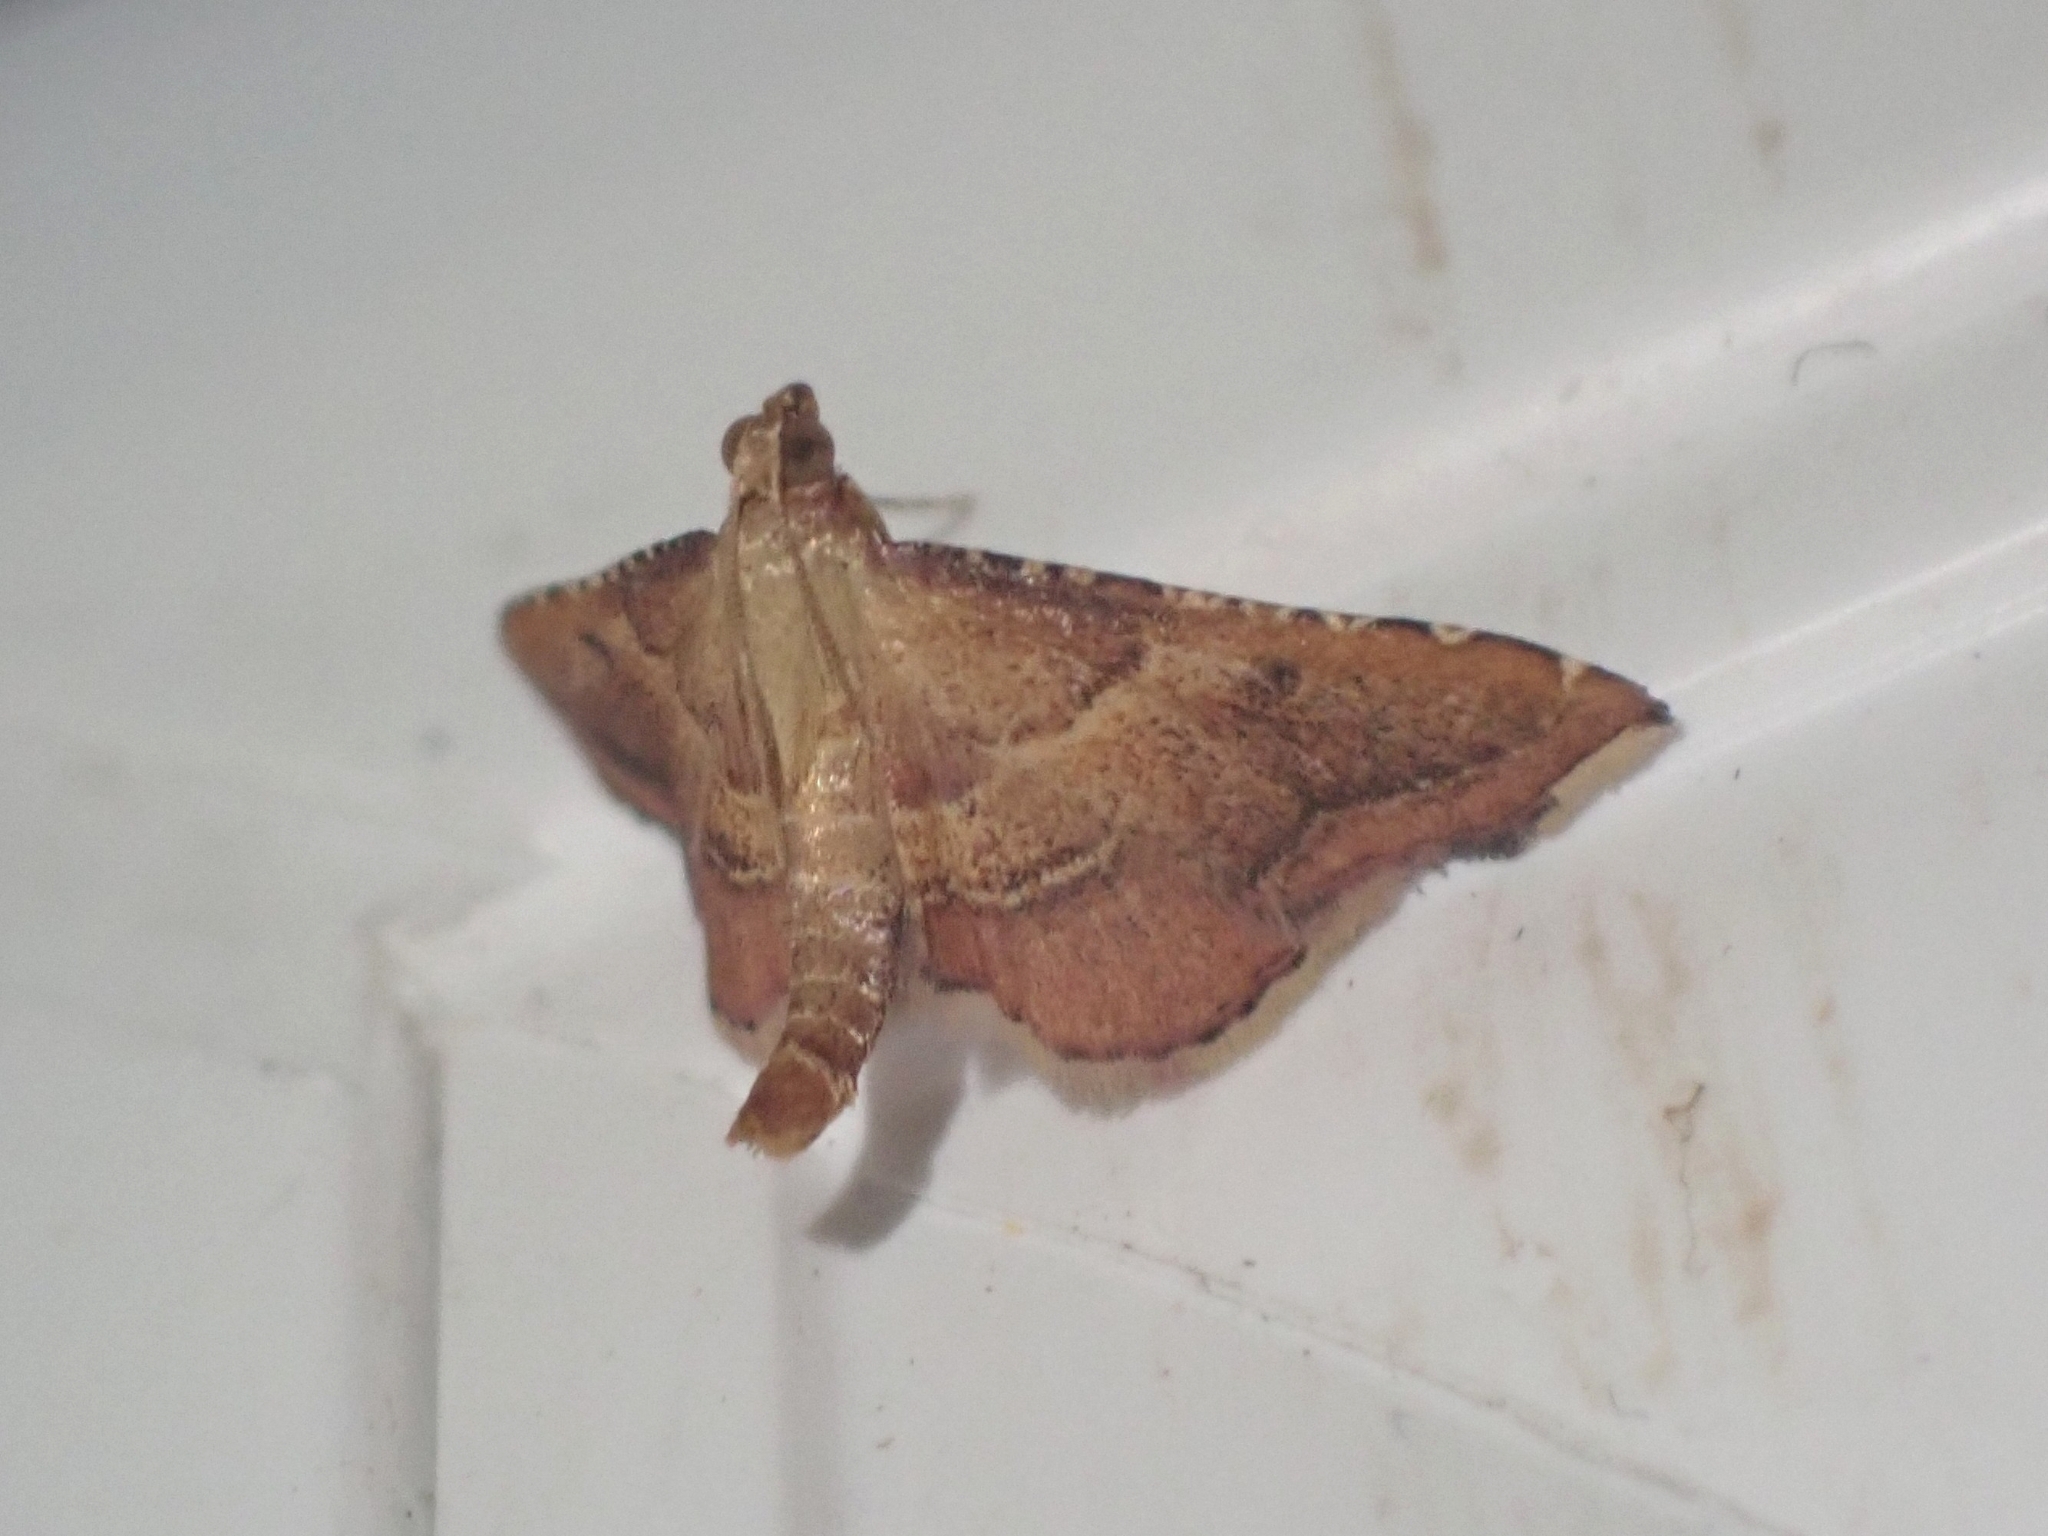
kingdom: Animalia
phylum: Arthropoda
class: Insecta
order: Lepidoptera
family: Pyralidae
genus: Endotricha
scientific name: Endotricha flammealis
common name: Rosy tabby
